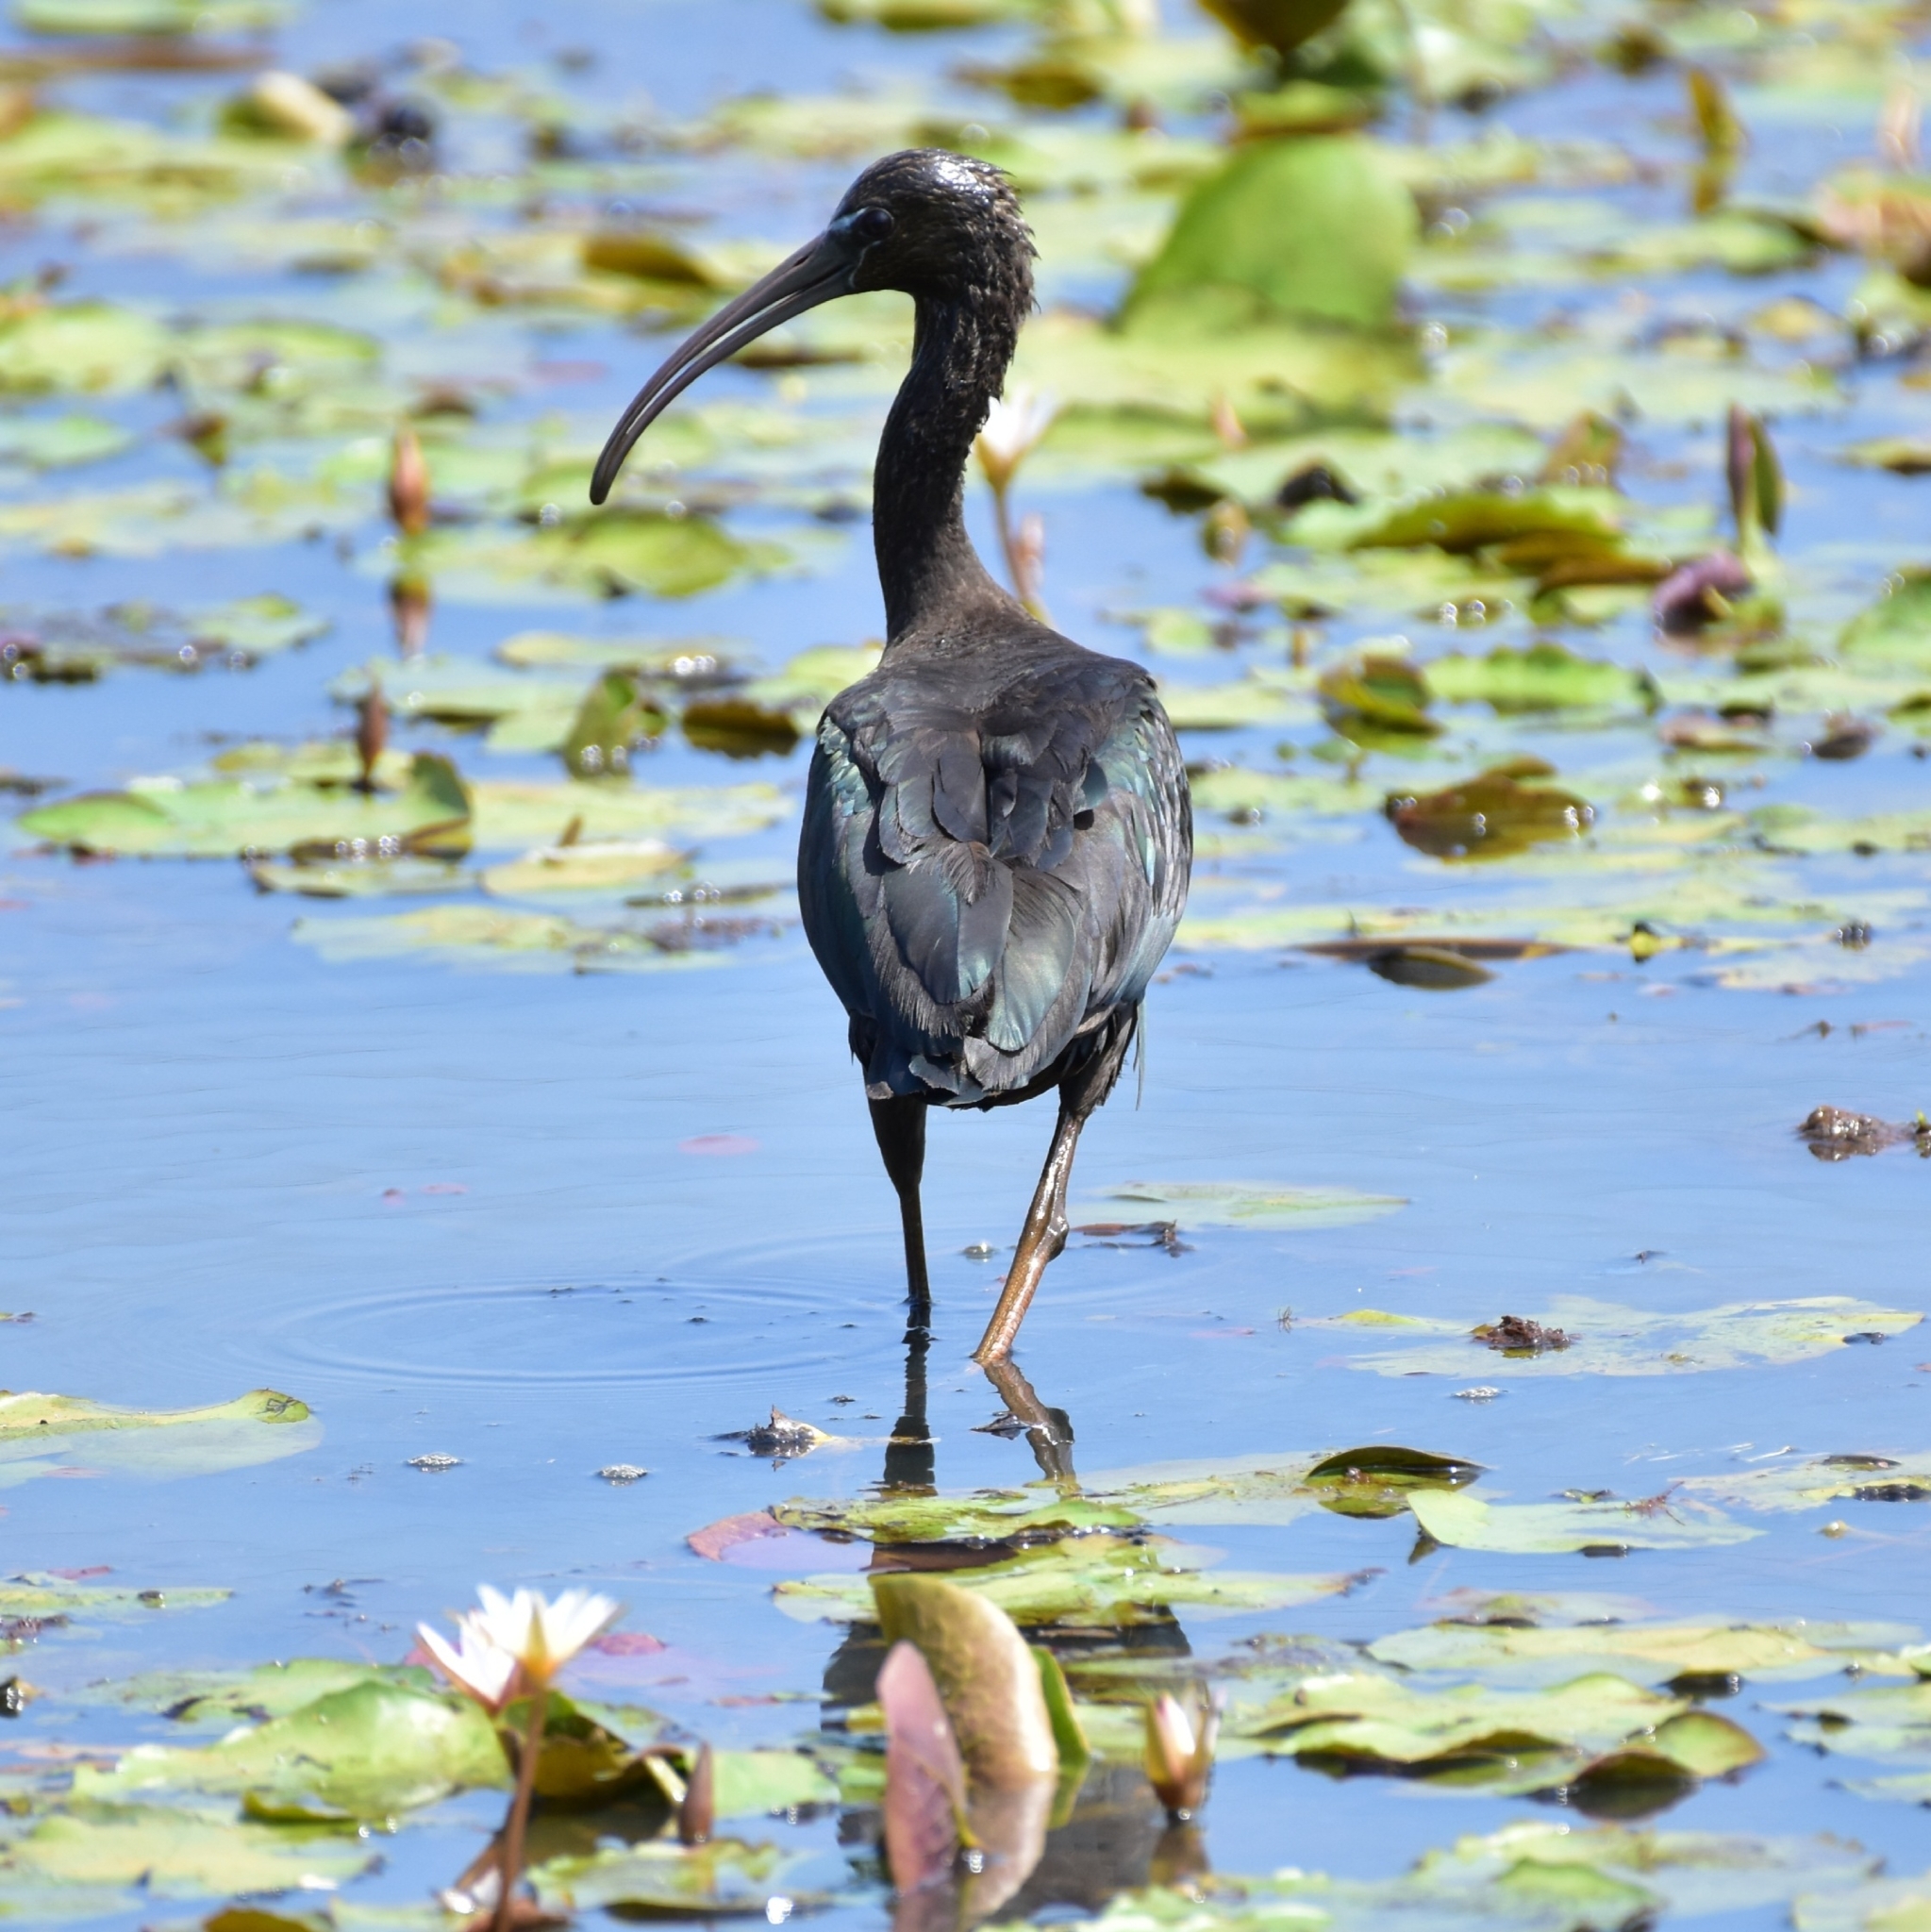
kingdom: Animalia
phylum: Chordata
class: Aves
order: Pelecaniformes
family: Threskiornithidae
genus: Plegadis
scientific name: Plegadis falcinellus
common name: Glossy ibis
